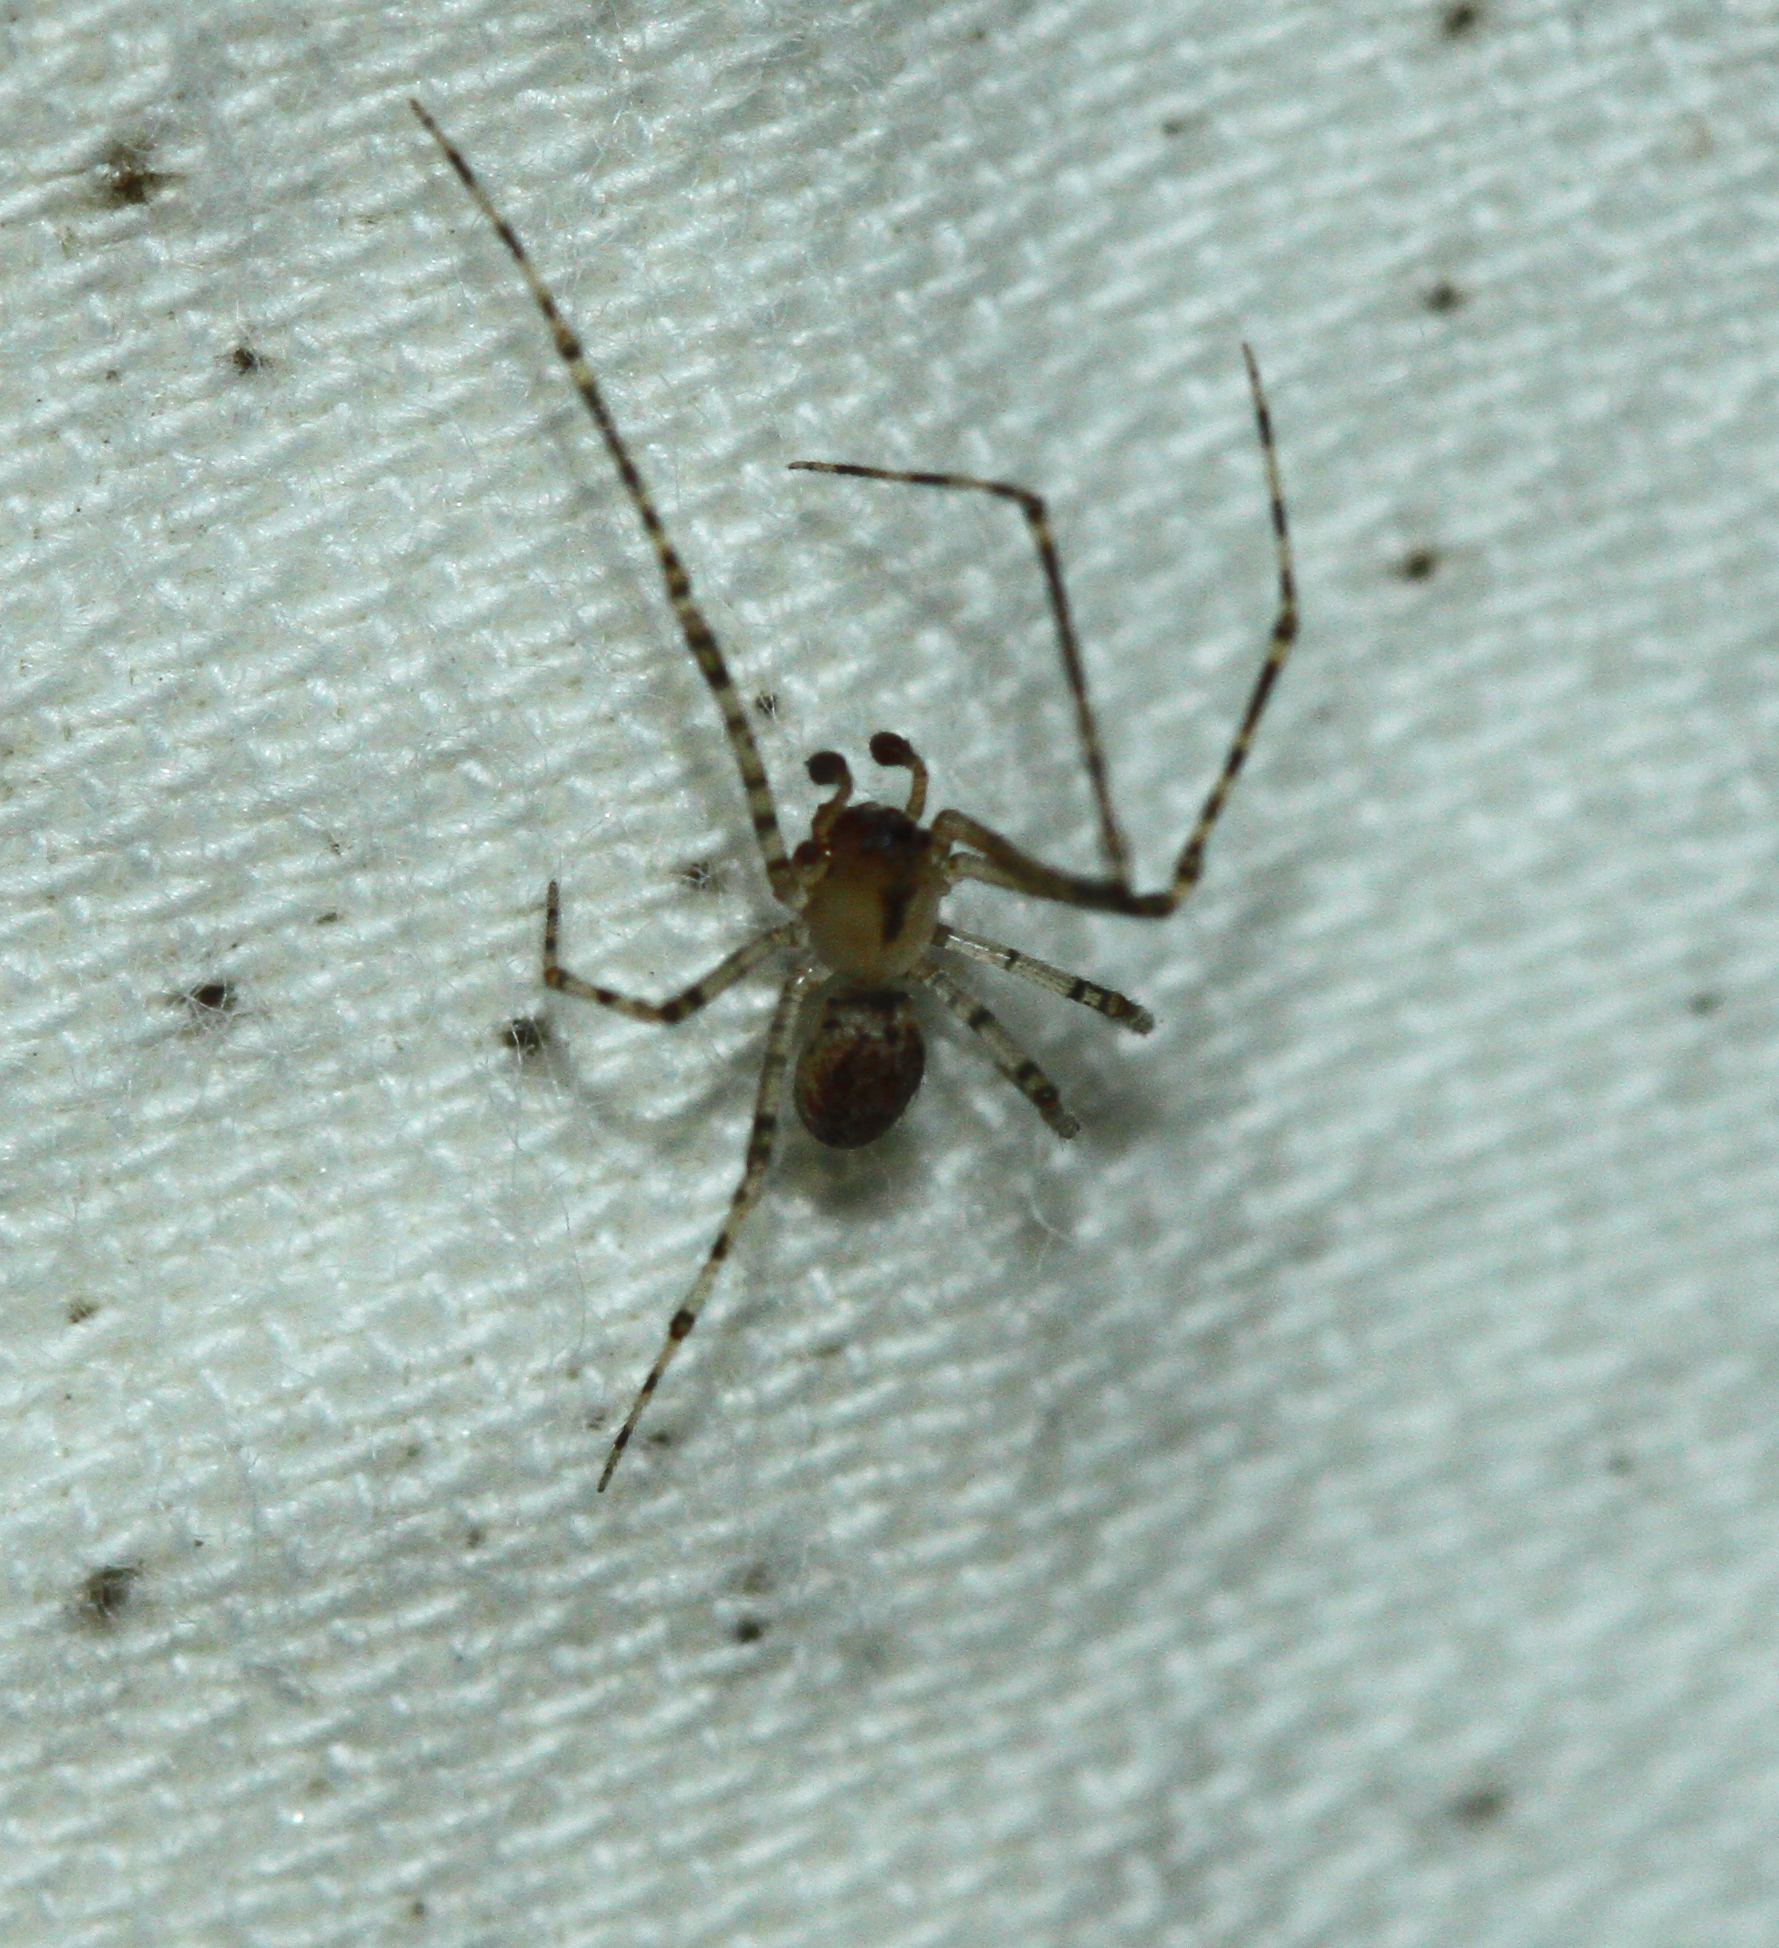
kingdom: Animalia
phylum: Arthropoda
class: Arachnida
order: Araneae
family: Theridiidae
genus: Platnickina
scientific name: Platnickina tincta
